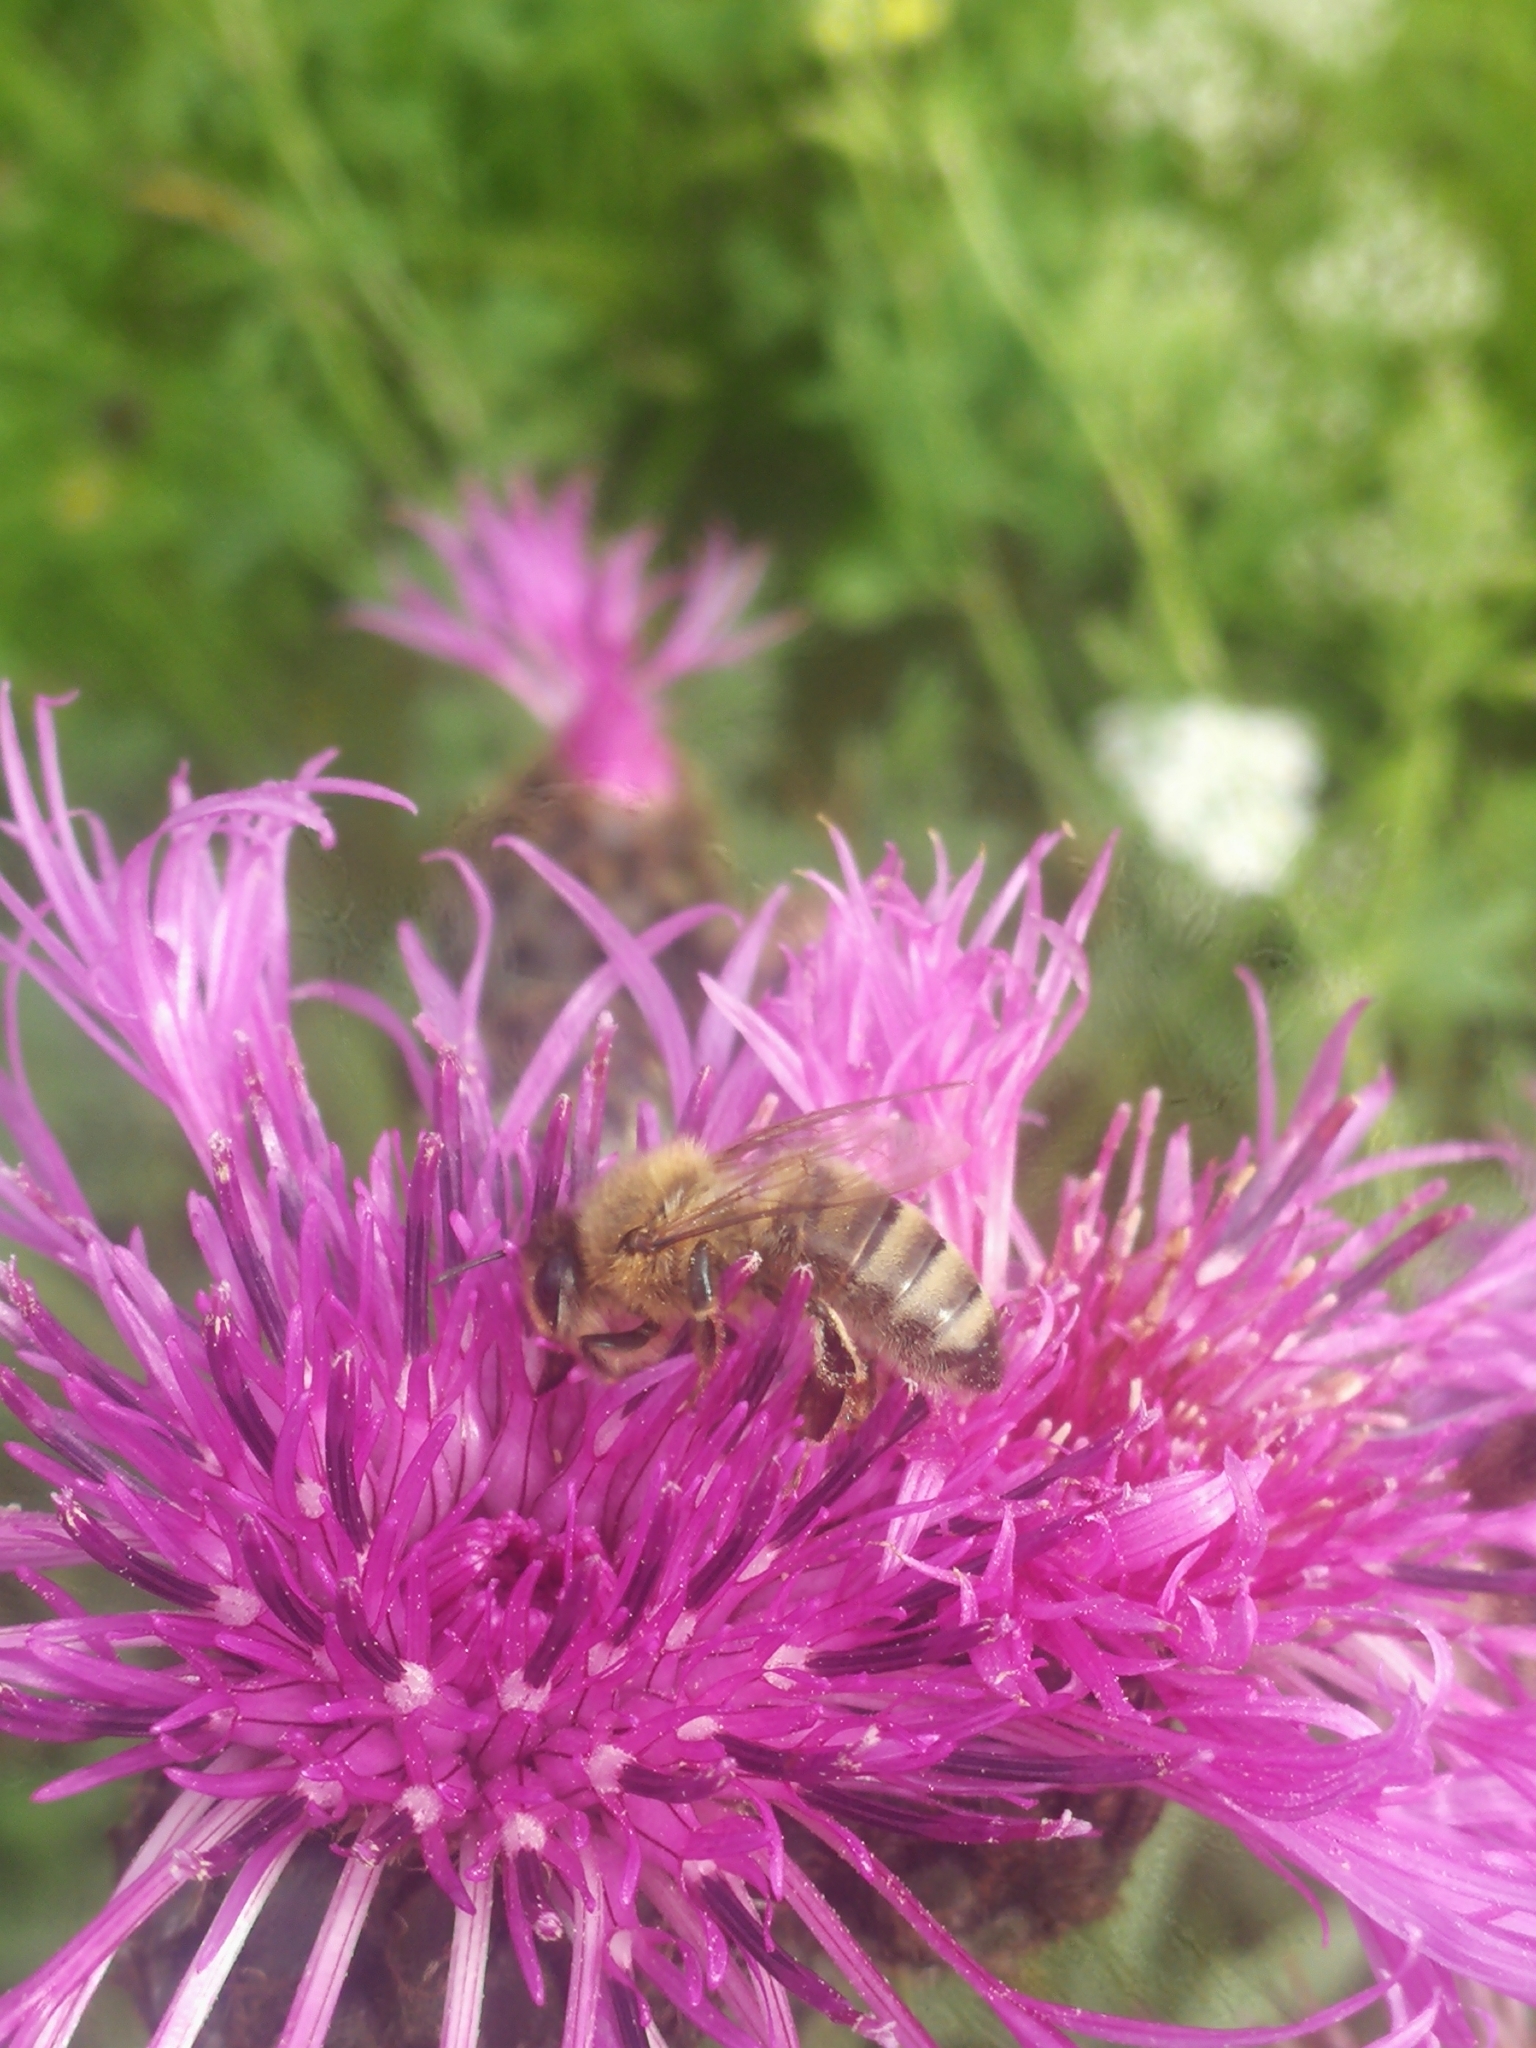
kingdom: Animalia
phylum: Arthropoda
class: Insecta
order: Hymenoptera
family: Apidae
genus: Apis
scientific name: Apis mellifera
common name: Honey bee
